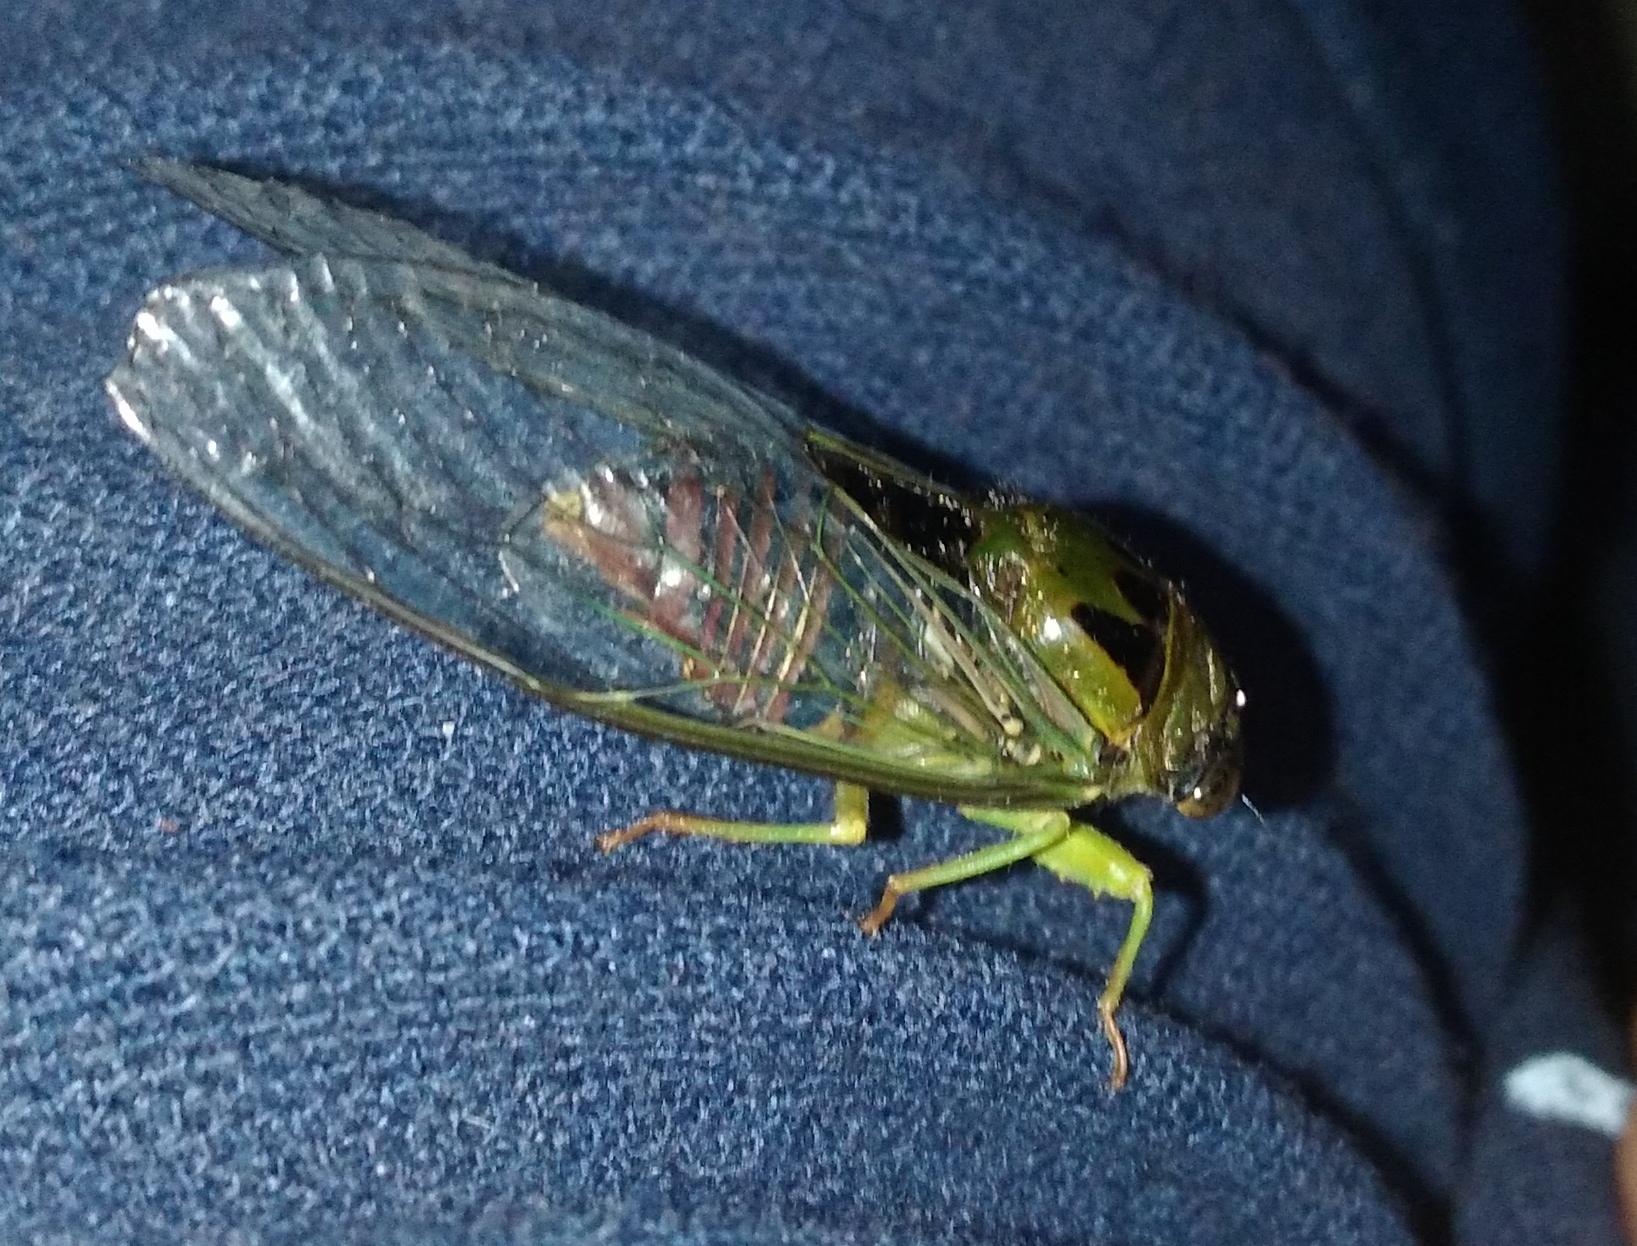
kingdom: Animalia
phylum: Arthropoda
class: Insecta
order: Hemiptera
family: Cicadidae
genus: Acanthoventris
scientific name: Acanthoventris drewseni
